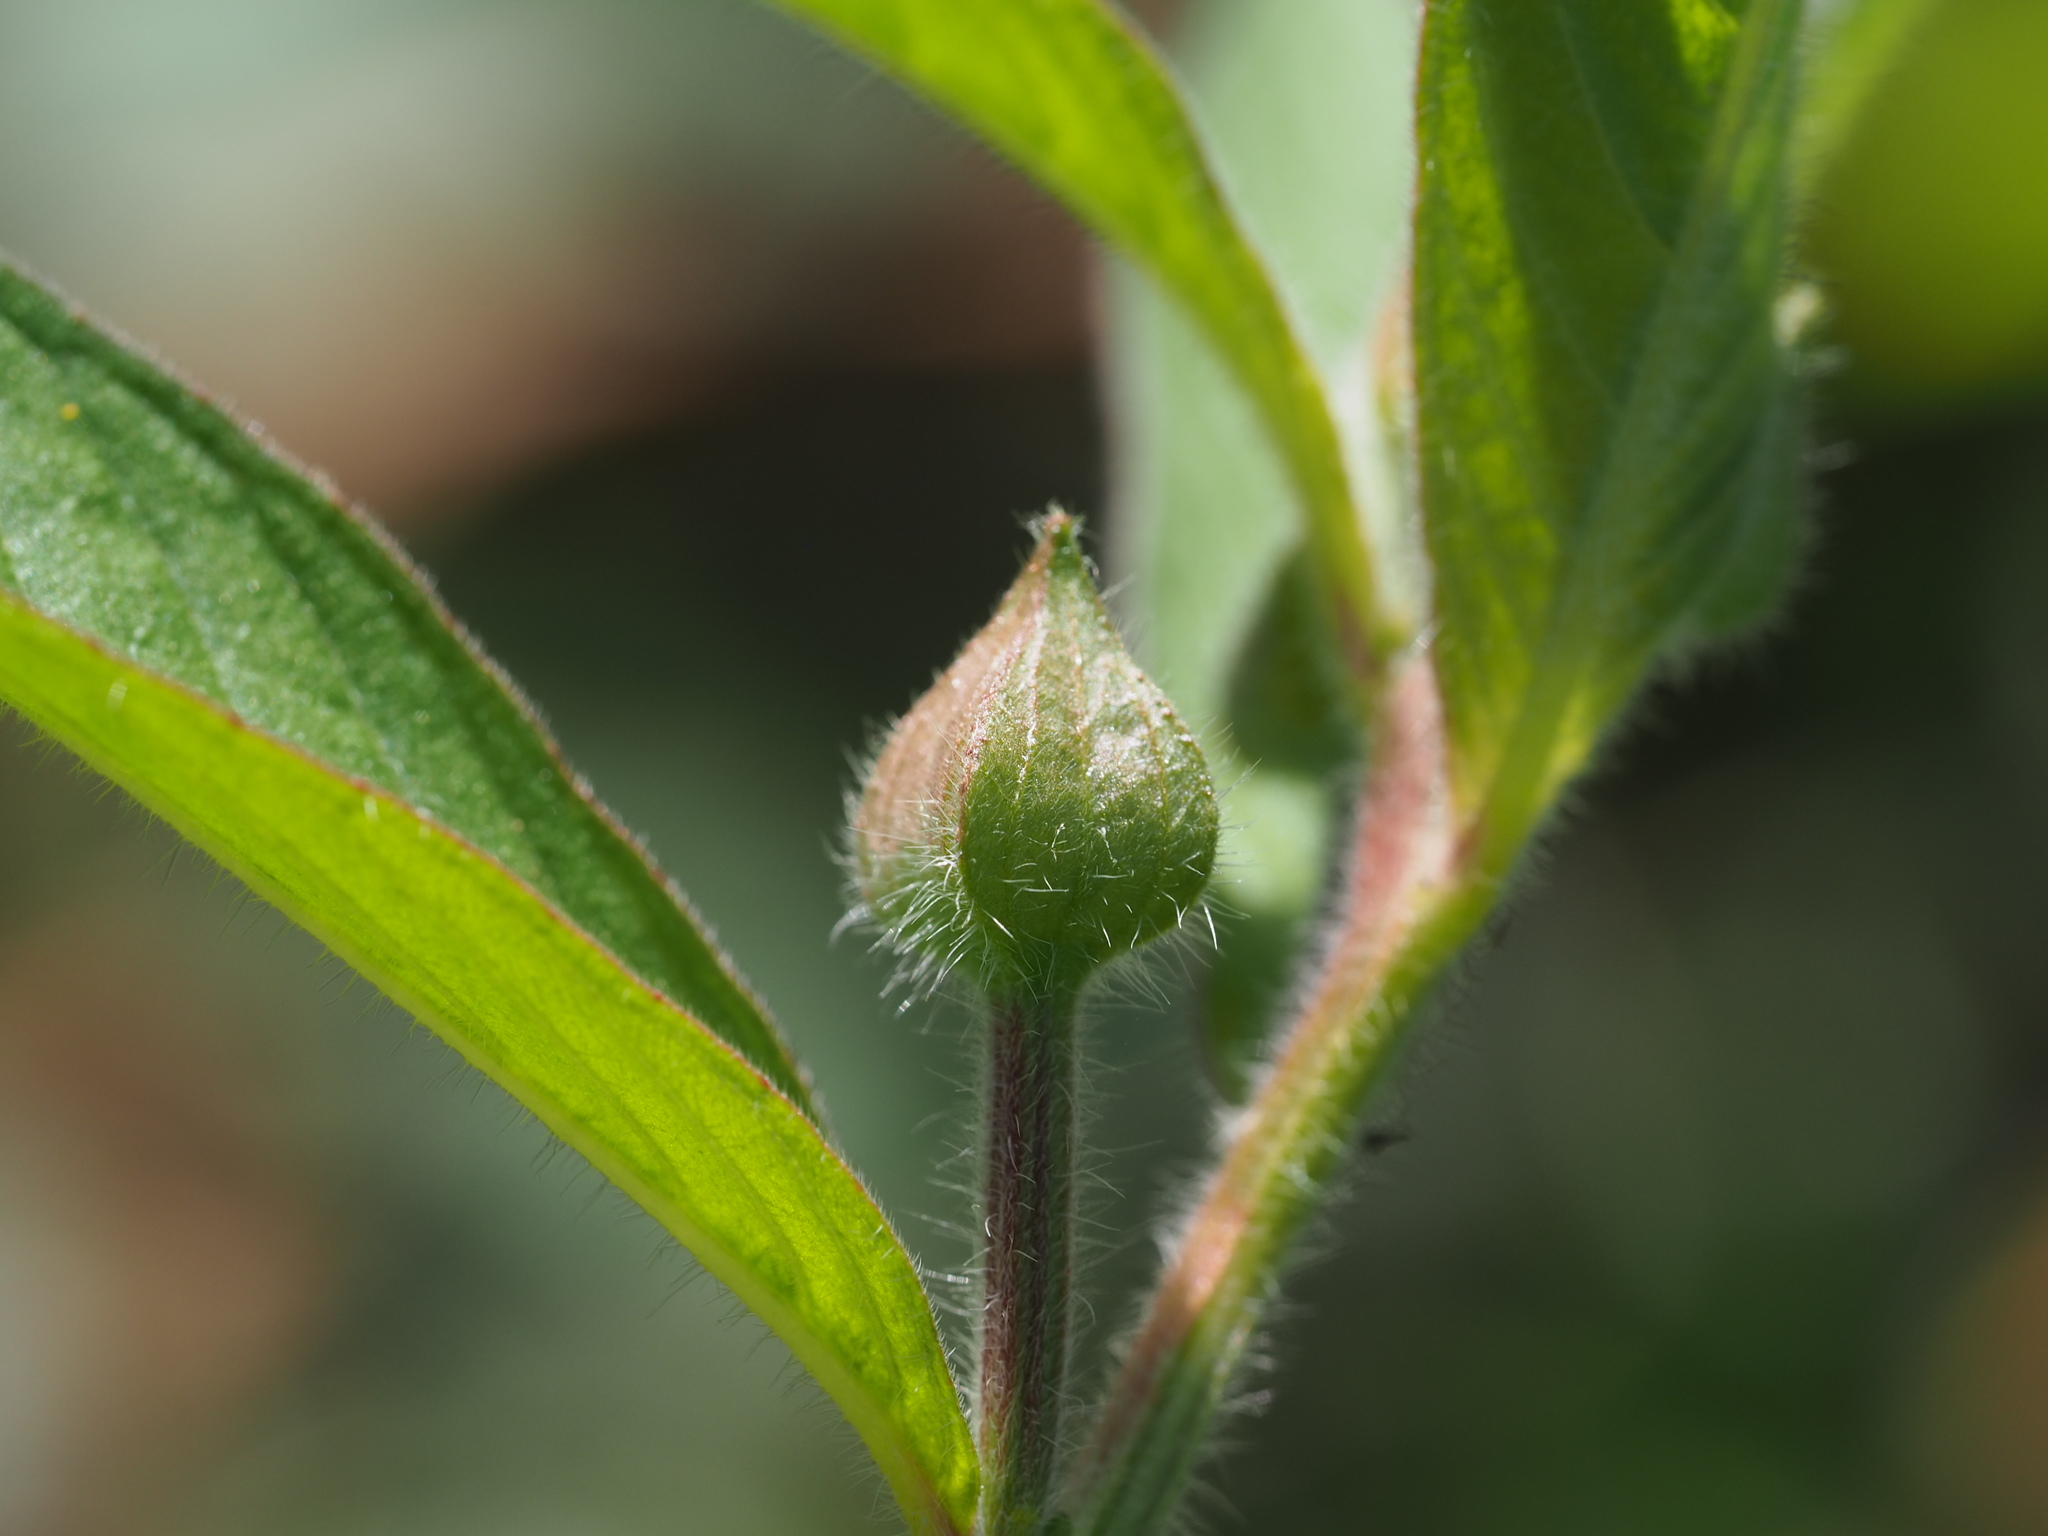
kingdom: Plantae
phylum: Tracheophyta
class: Magnoliopsida
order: Myrtales
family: Onagraceae
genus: Ludwigia
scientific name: Ludwigia octovalvis
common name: Water-primrose
